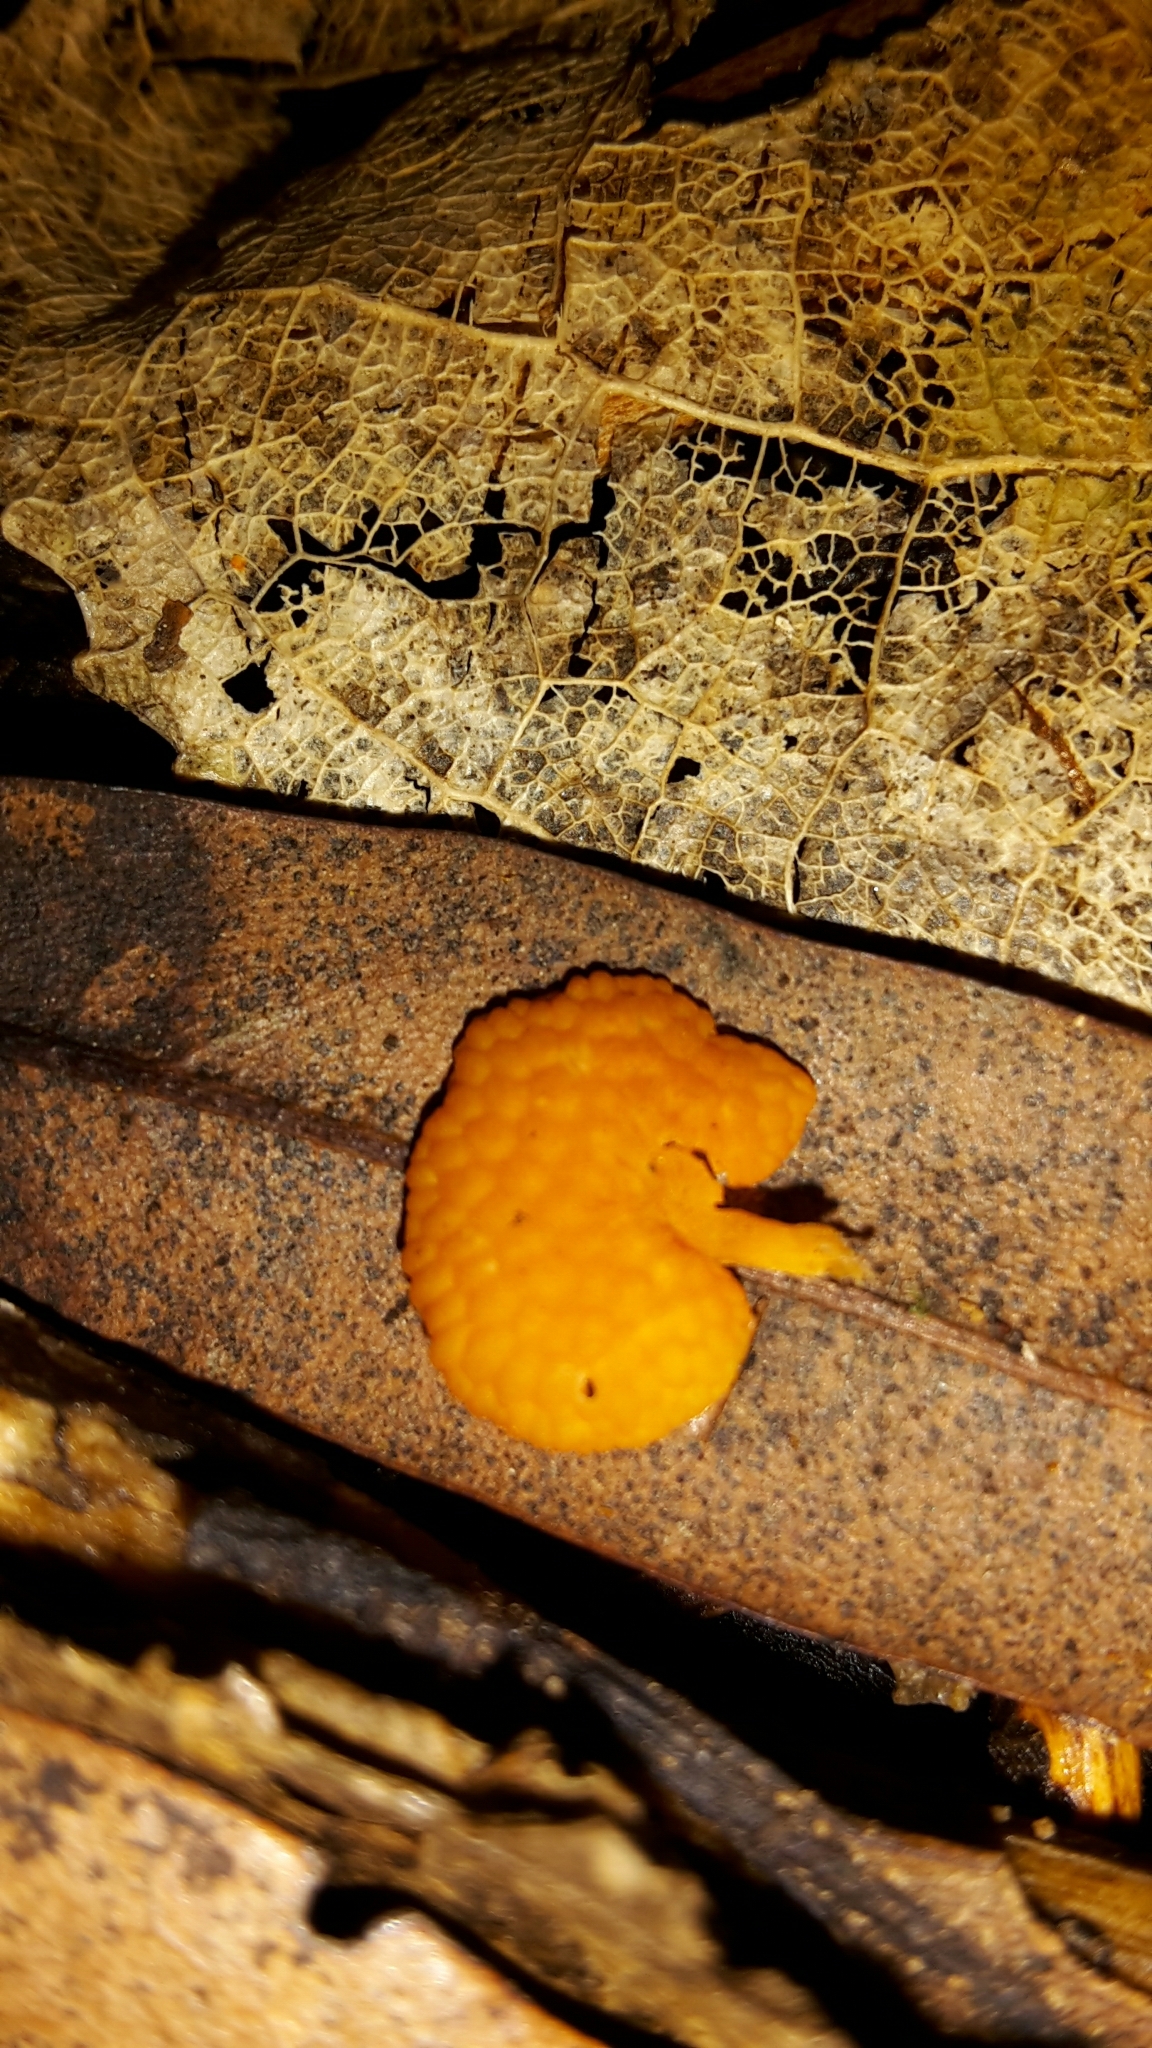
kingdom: Fungi
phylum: Basidiomycota
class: Agaricomycetes
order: Agaricales
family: Mycenaceae
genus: Favolaschia
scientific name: Favolaschia claudopus
